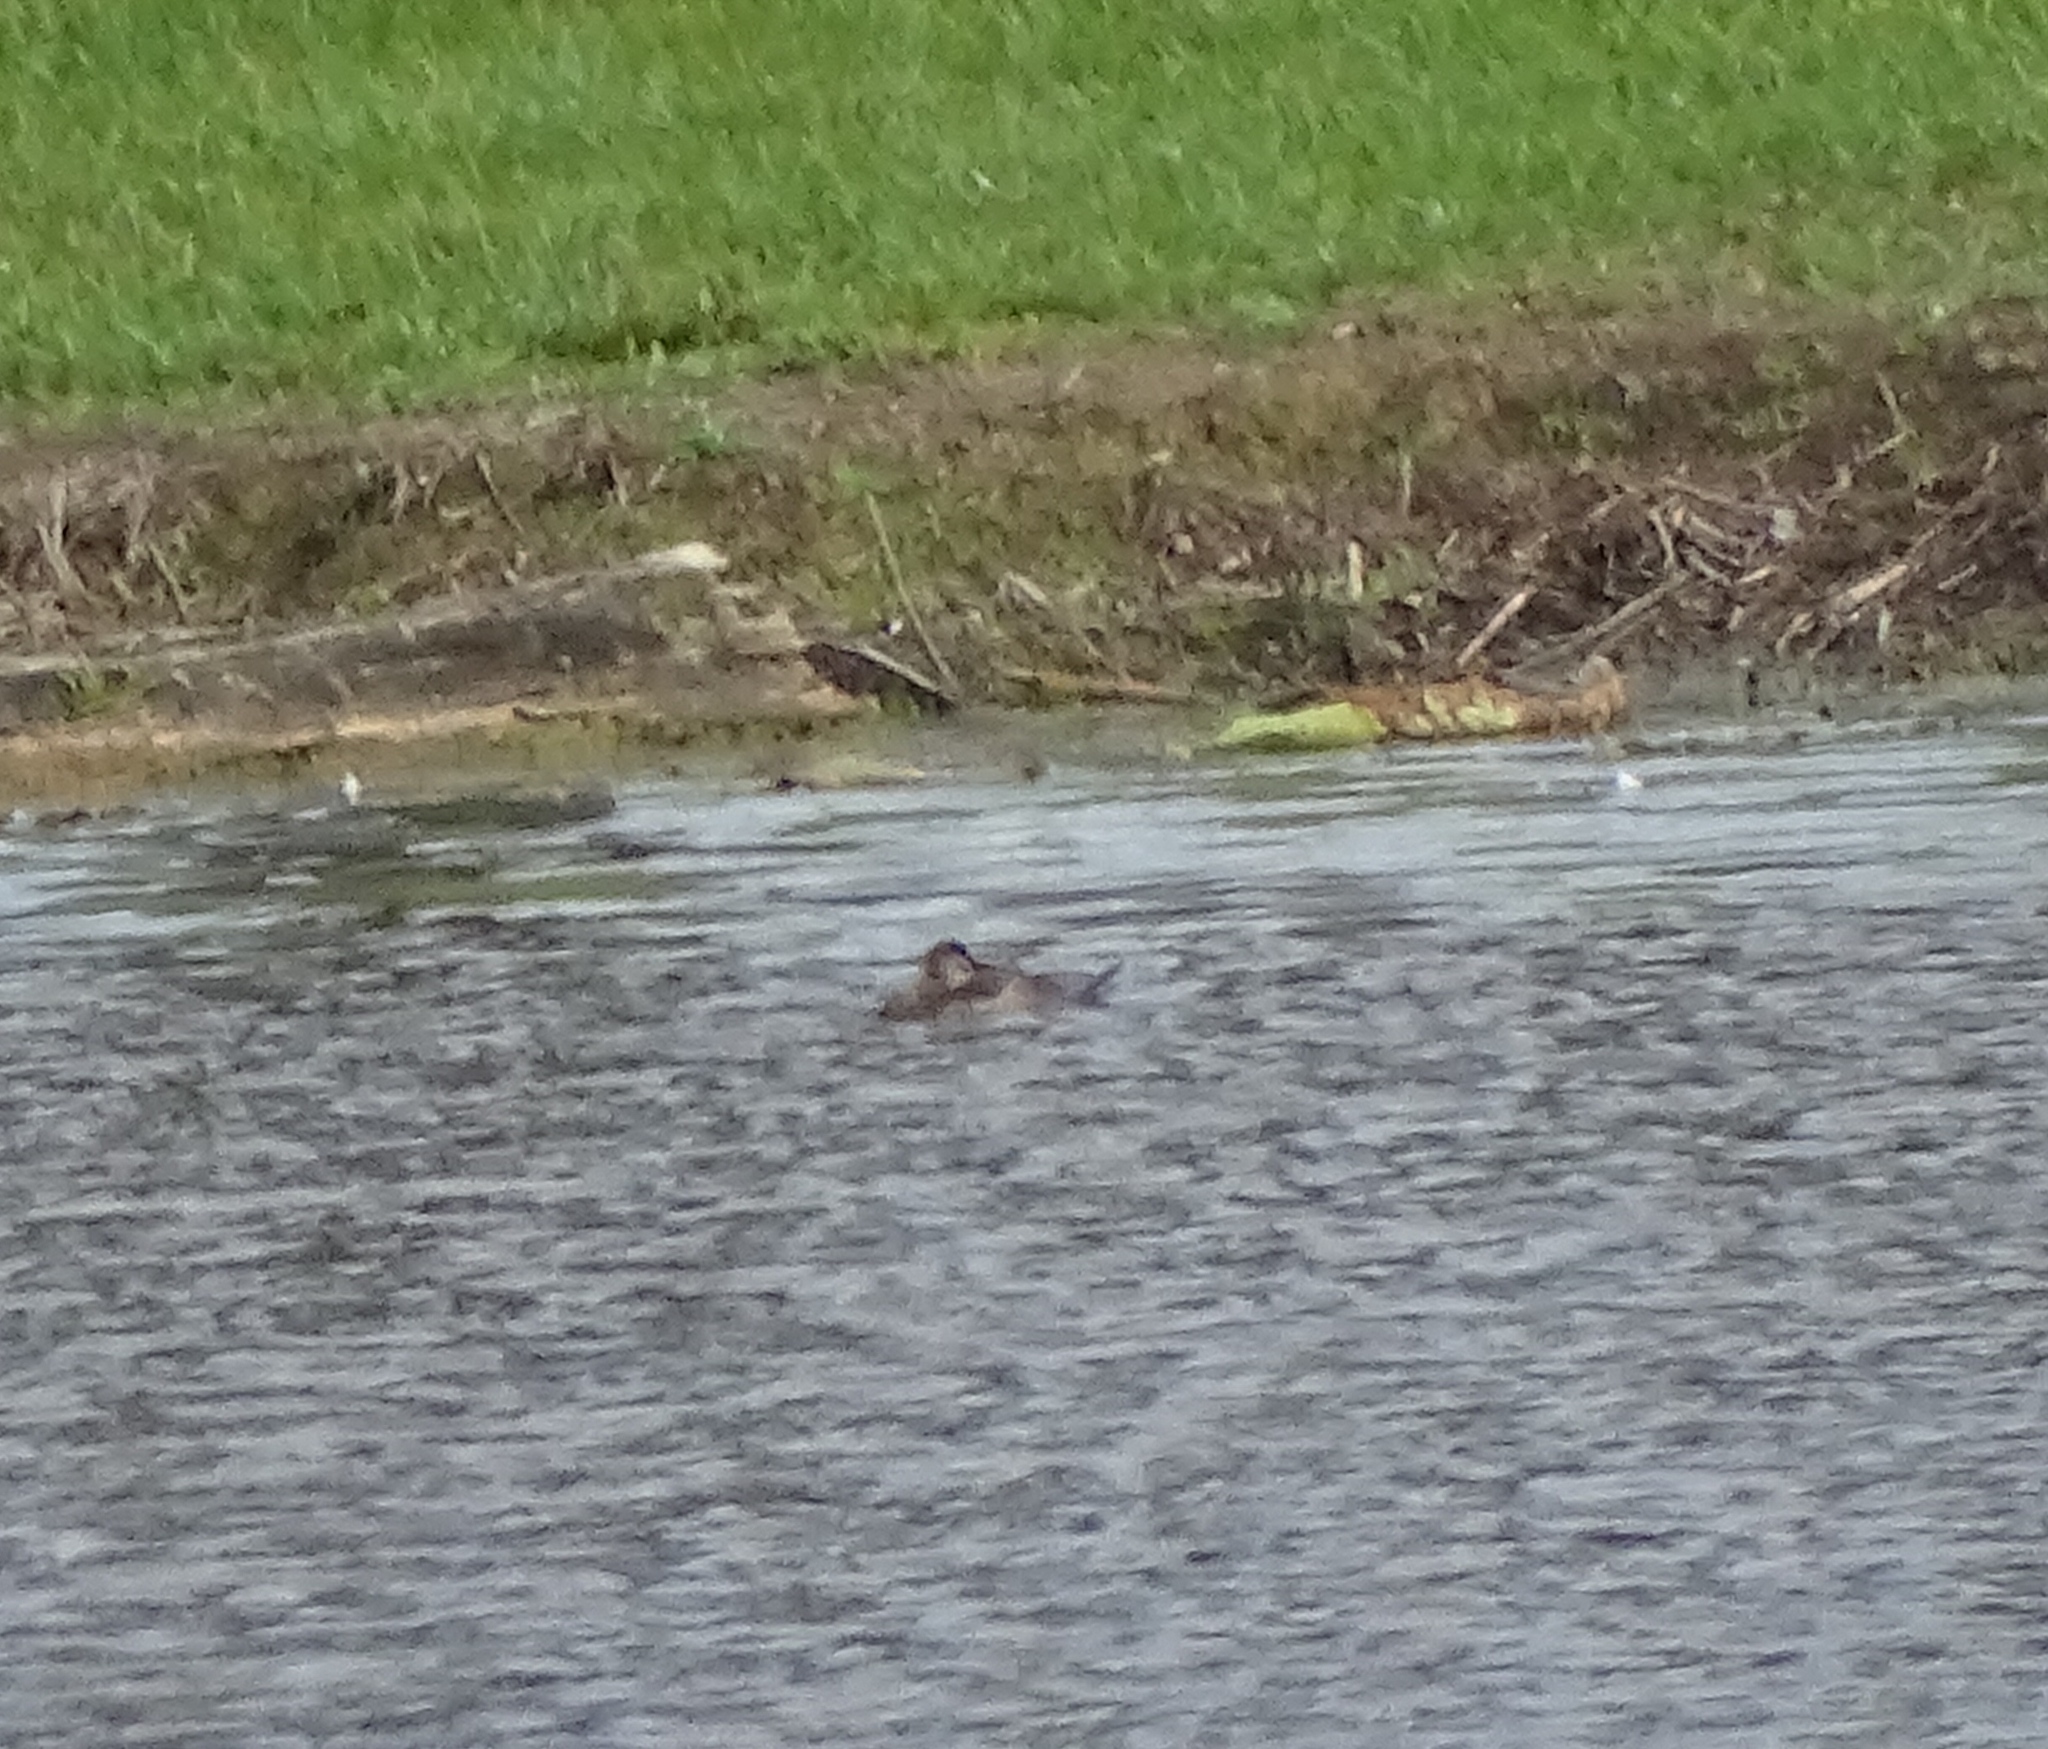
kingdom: Animalia
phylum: Chordata
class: Aves
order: Anseriformes
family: Anatidae
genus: Oxyura
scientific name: Oxyura jamaicensis
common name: Ruddy duck
